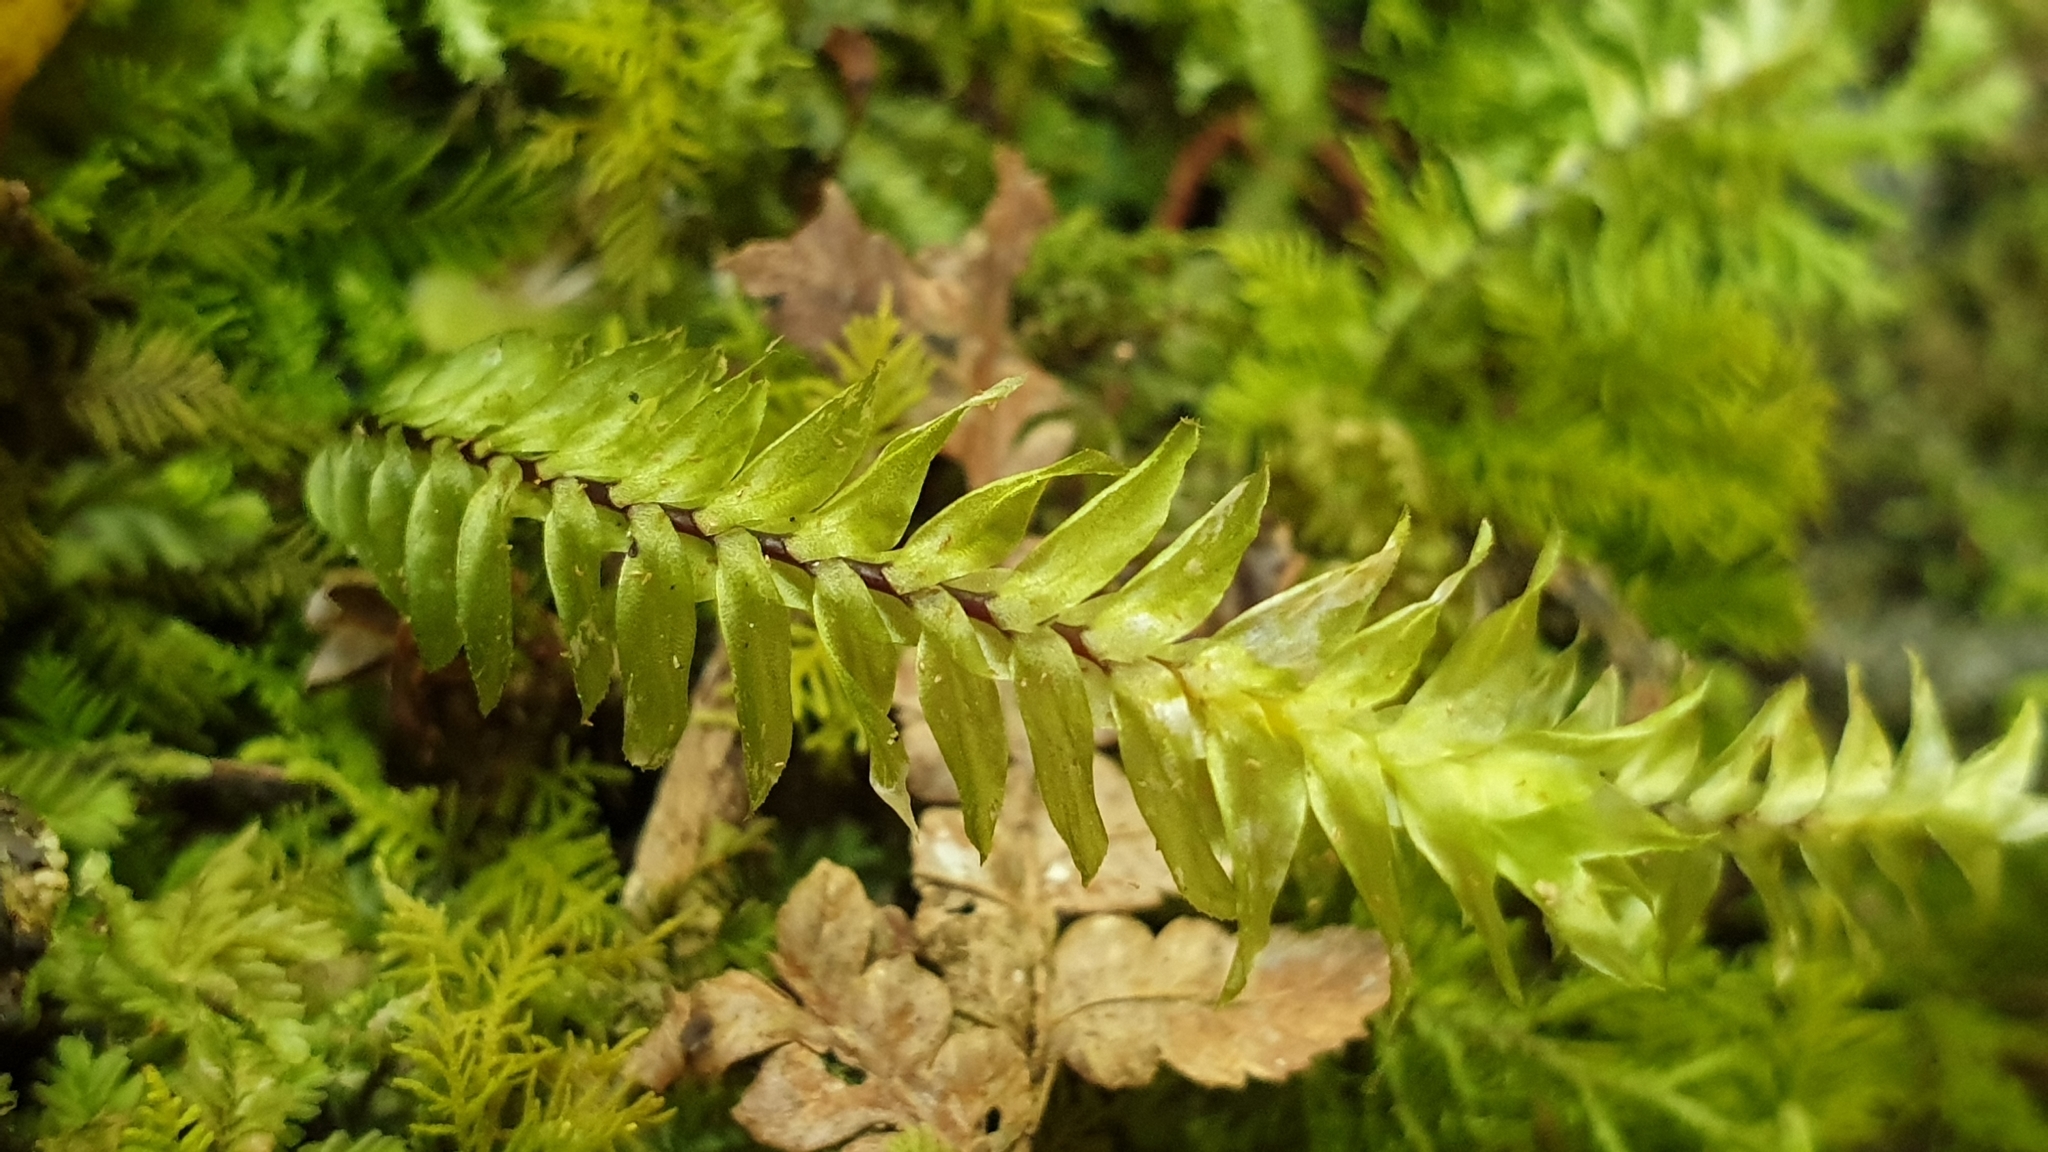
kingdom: Plantae
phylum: Bryophyta
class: Bryopsida
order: Hypopterygiales
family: Hypopterygiaceae
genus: Cyathophorum
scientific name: Cyathophorum bulbosum
